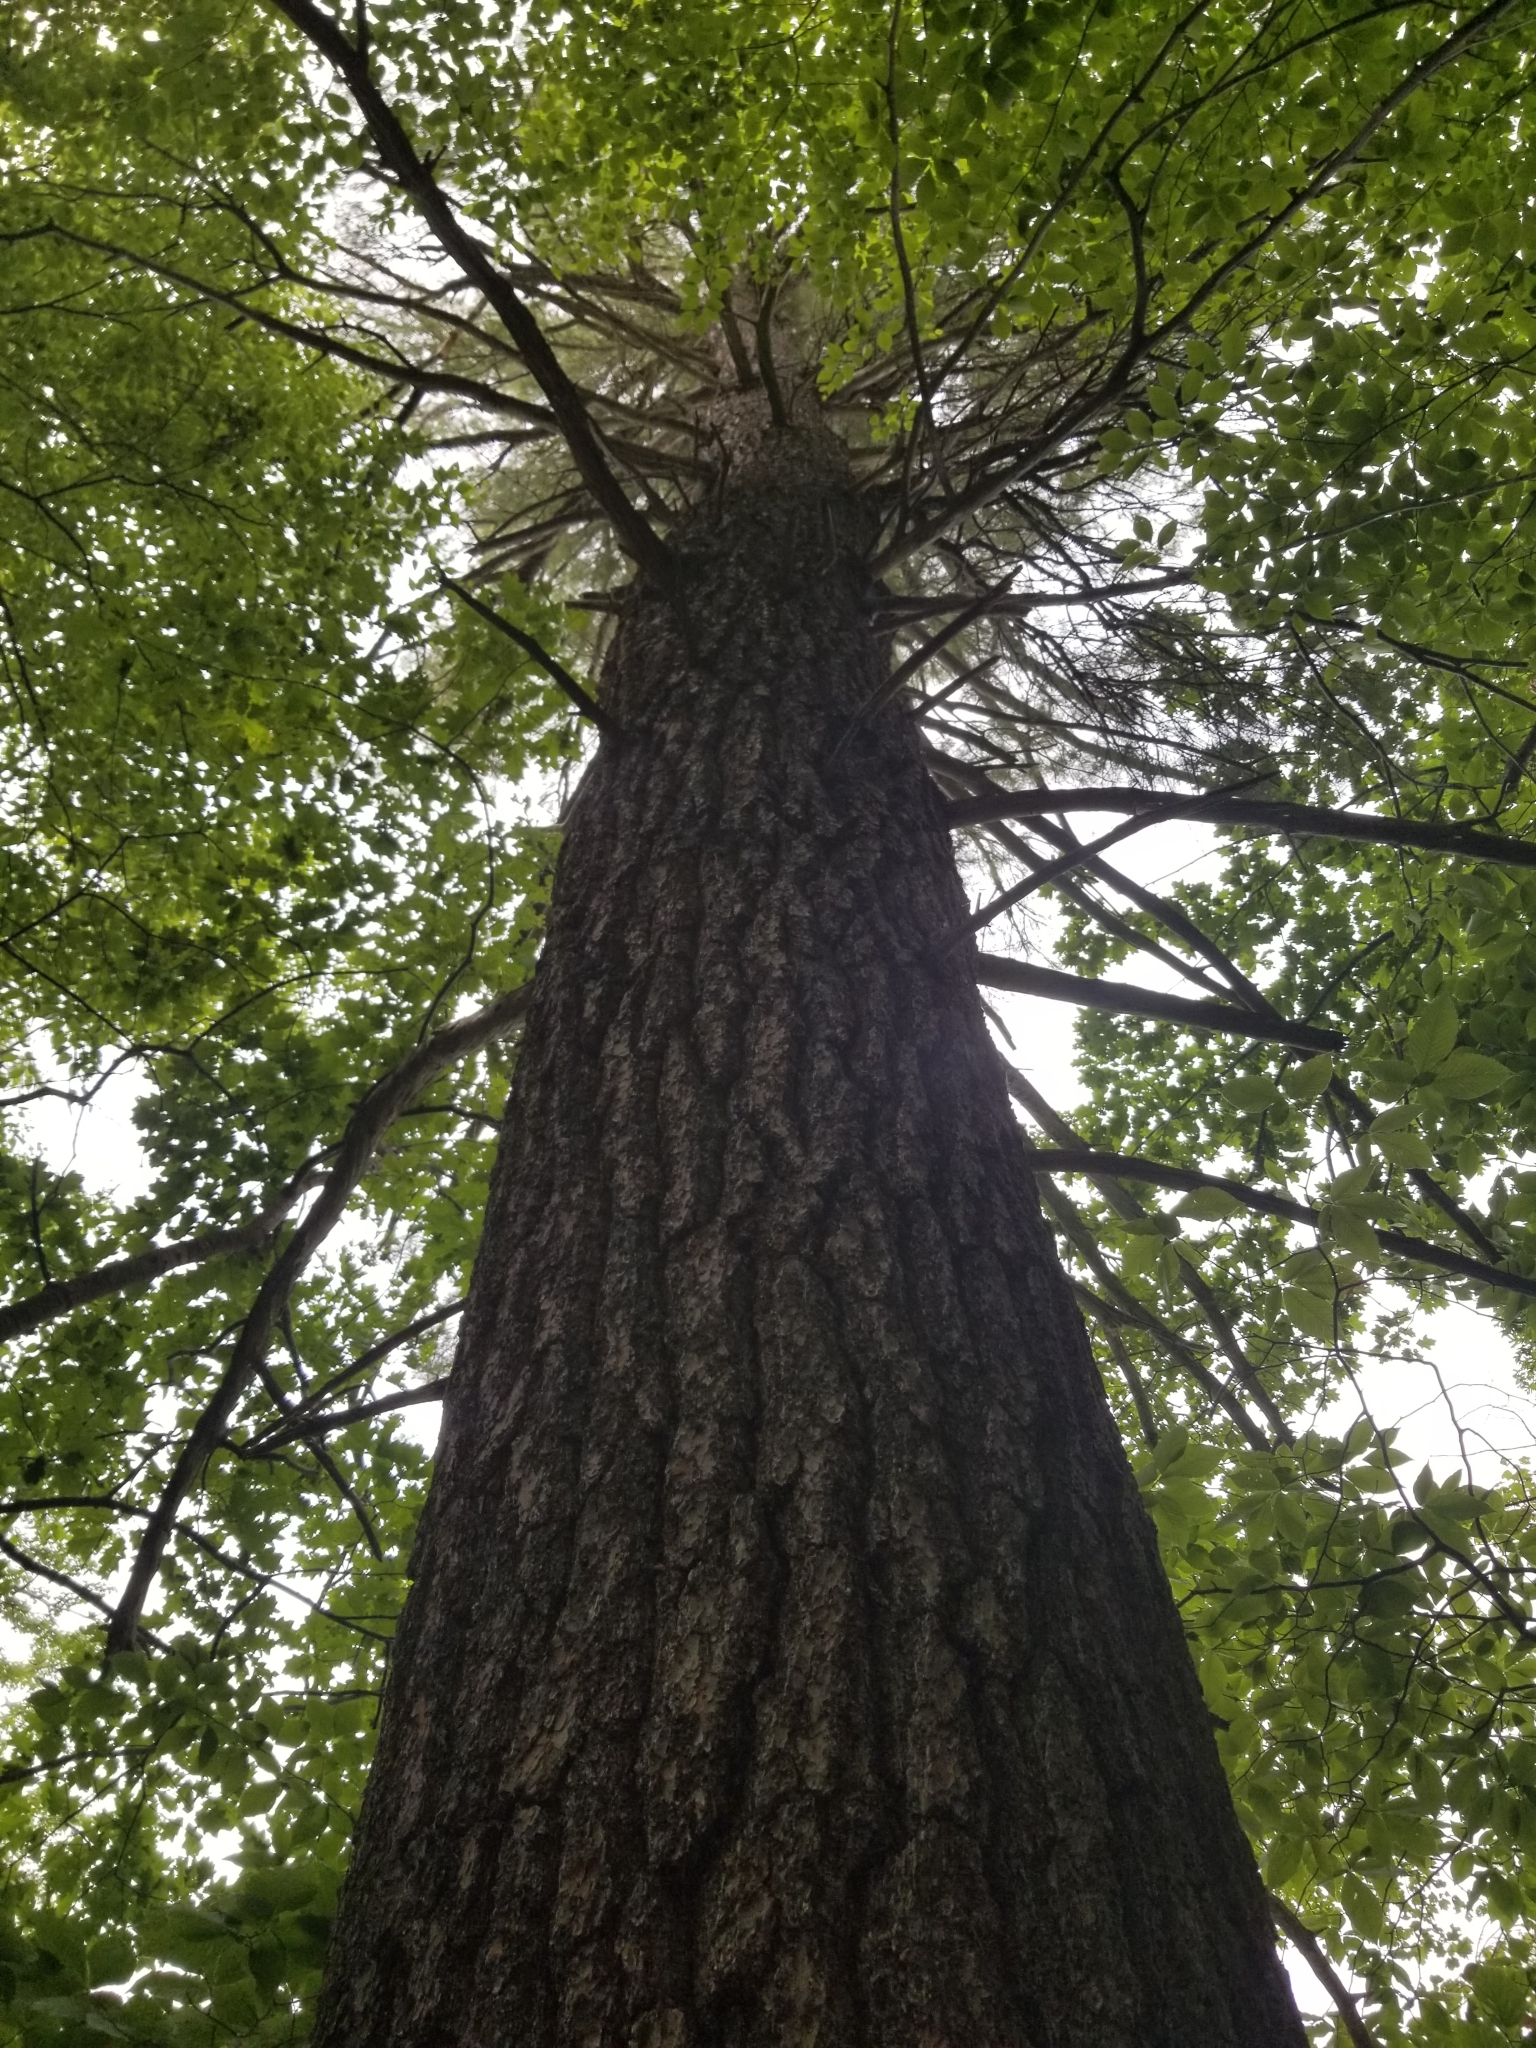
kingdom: Plantae
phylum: Tracheophyta
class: Pinopsida
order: Pinales
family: Pinaceae
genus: Pinus
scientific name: Pinus strobus
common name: Weymouth pine
